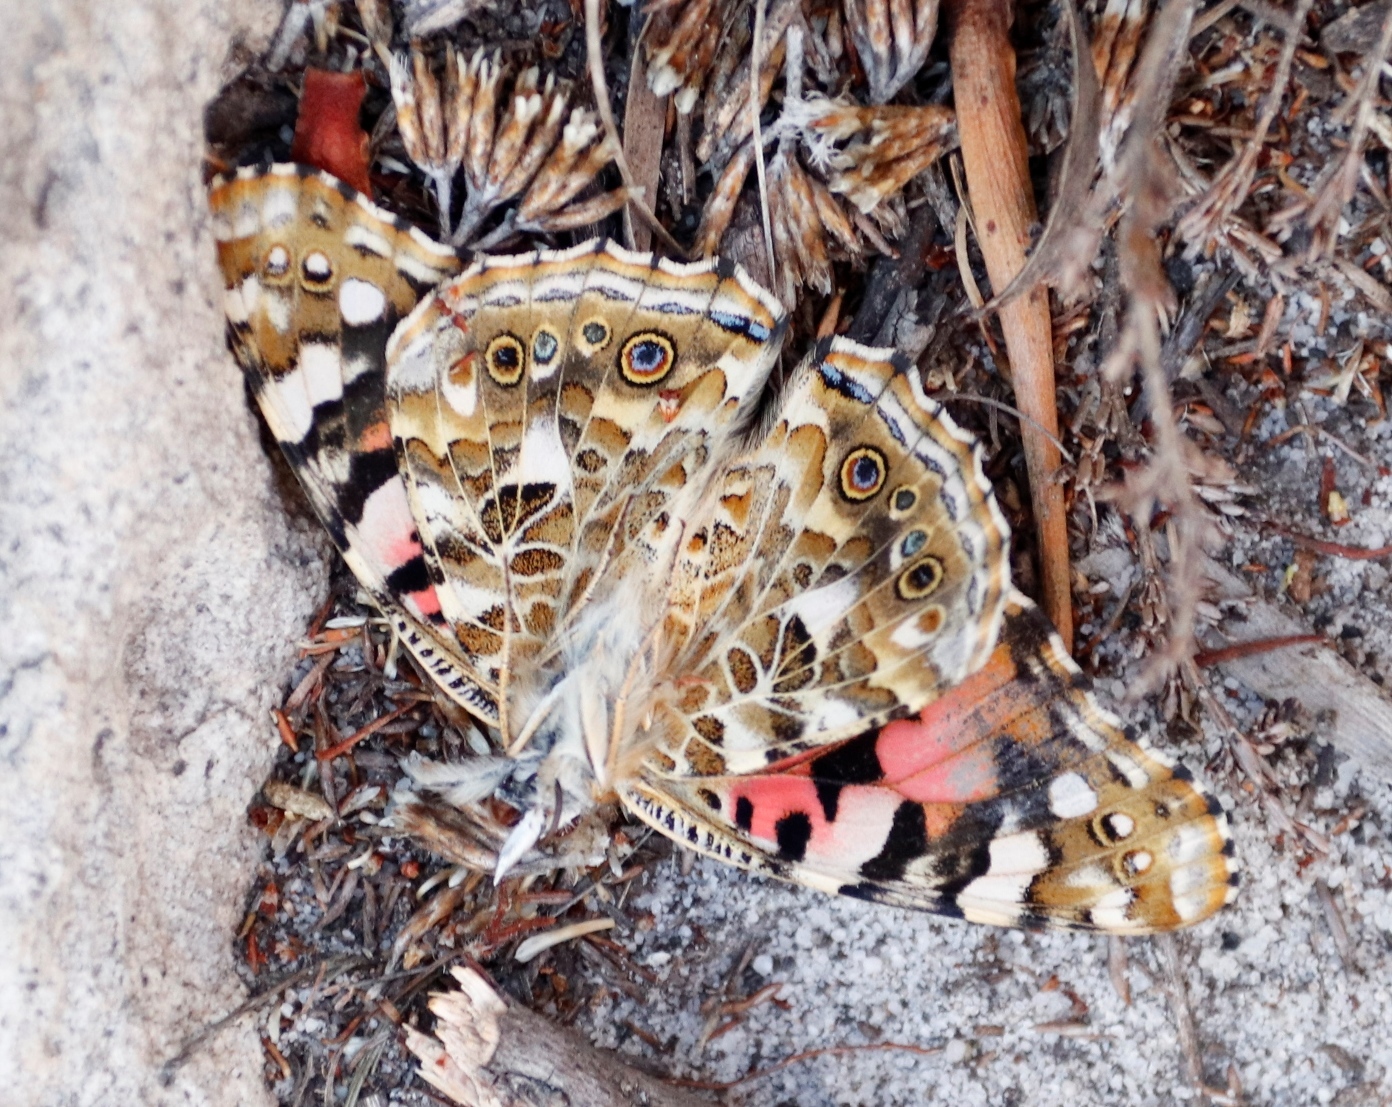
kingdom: Animalia
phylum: Arthropoda
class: Insecta
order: Lepidoptera
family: Nymphalidae
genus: Vanessa
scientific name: Vanessa cardui
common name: Painted lady
